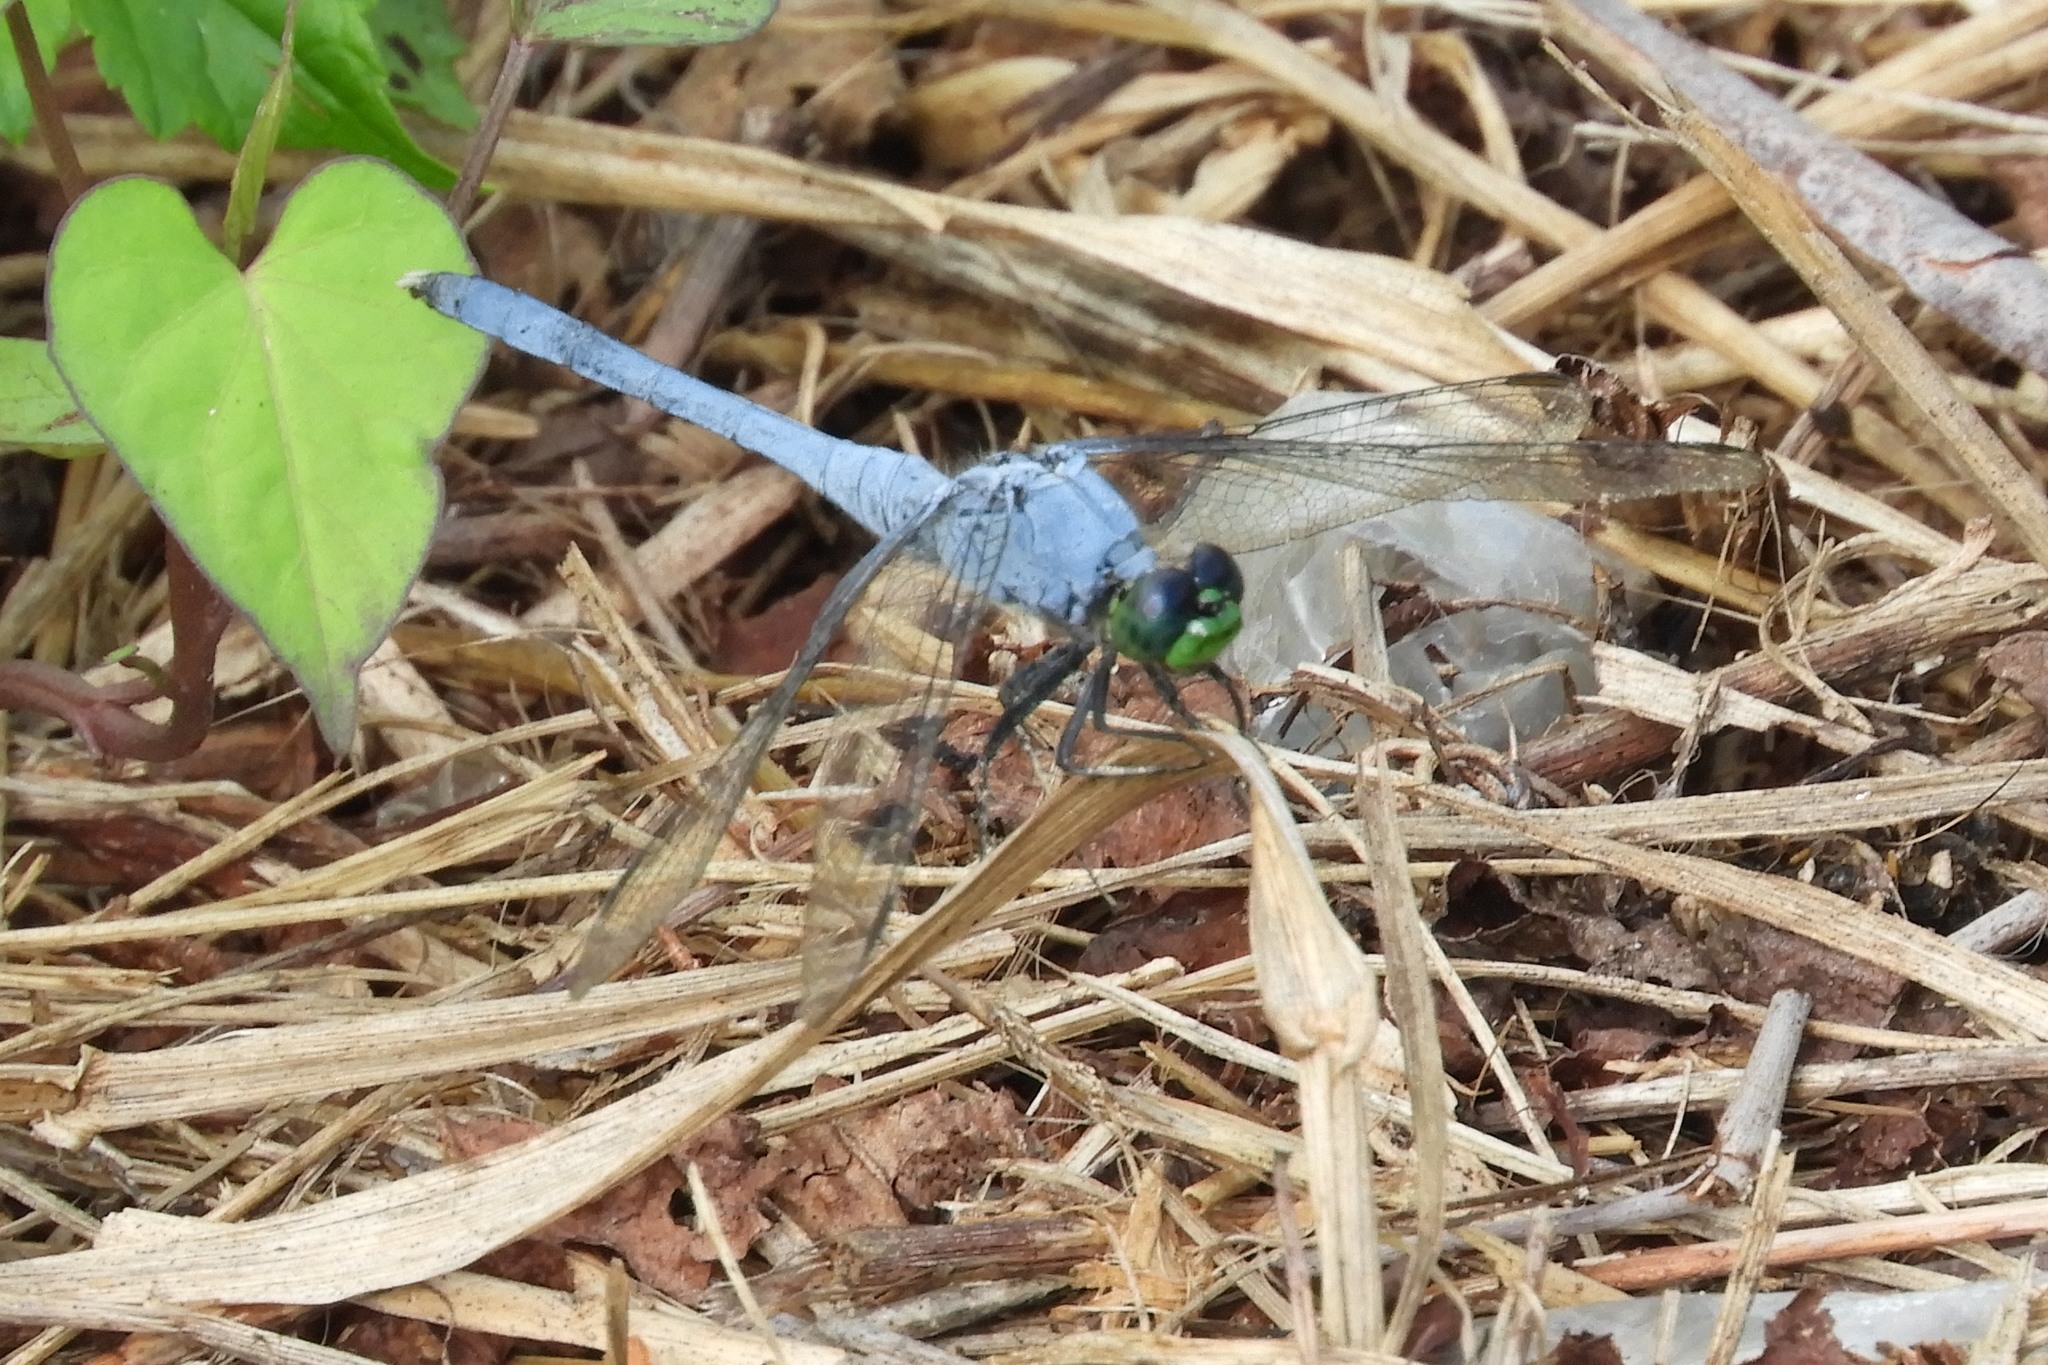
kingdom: Animalia
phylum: Arthropoda
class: Insecta
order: Odonata
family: Libellulidae
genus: Erythemis
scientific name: Erythemis simplicicollis
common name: Eastern pondhawk
